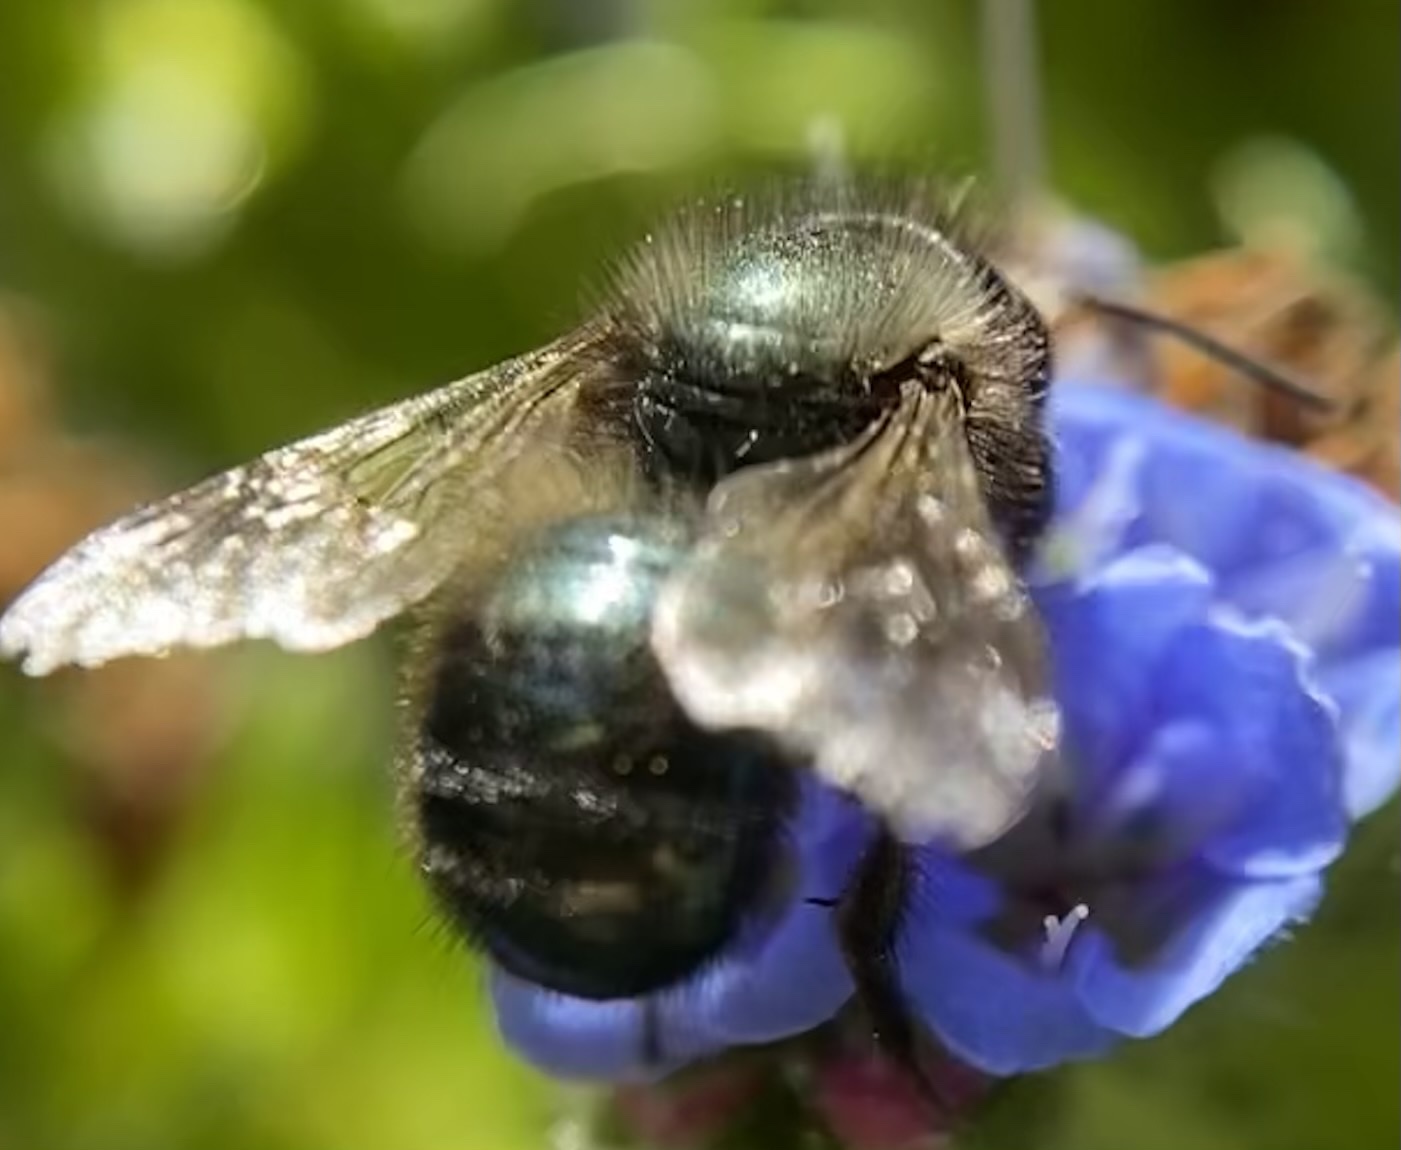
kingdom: Animalia
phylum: Arthropoda
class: Insecta
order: Hymenoptera
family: Megachilidae
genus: Osmia
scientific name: Osmia lignaria
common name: Blue orchard bee
